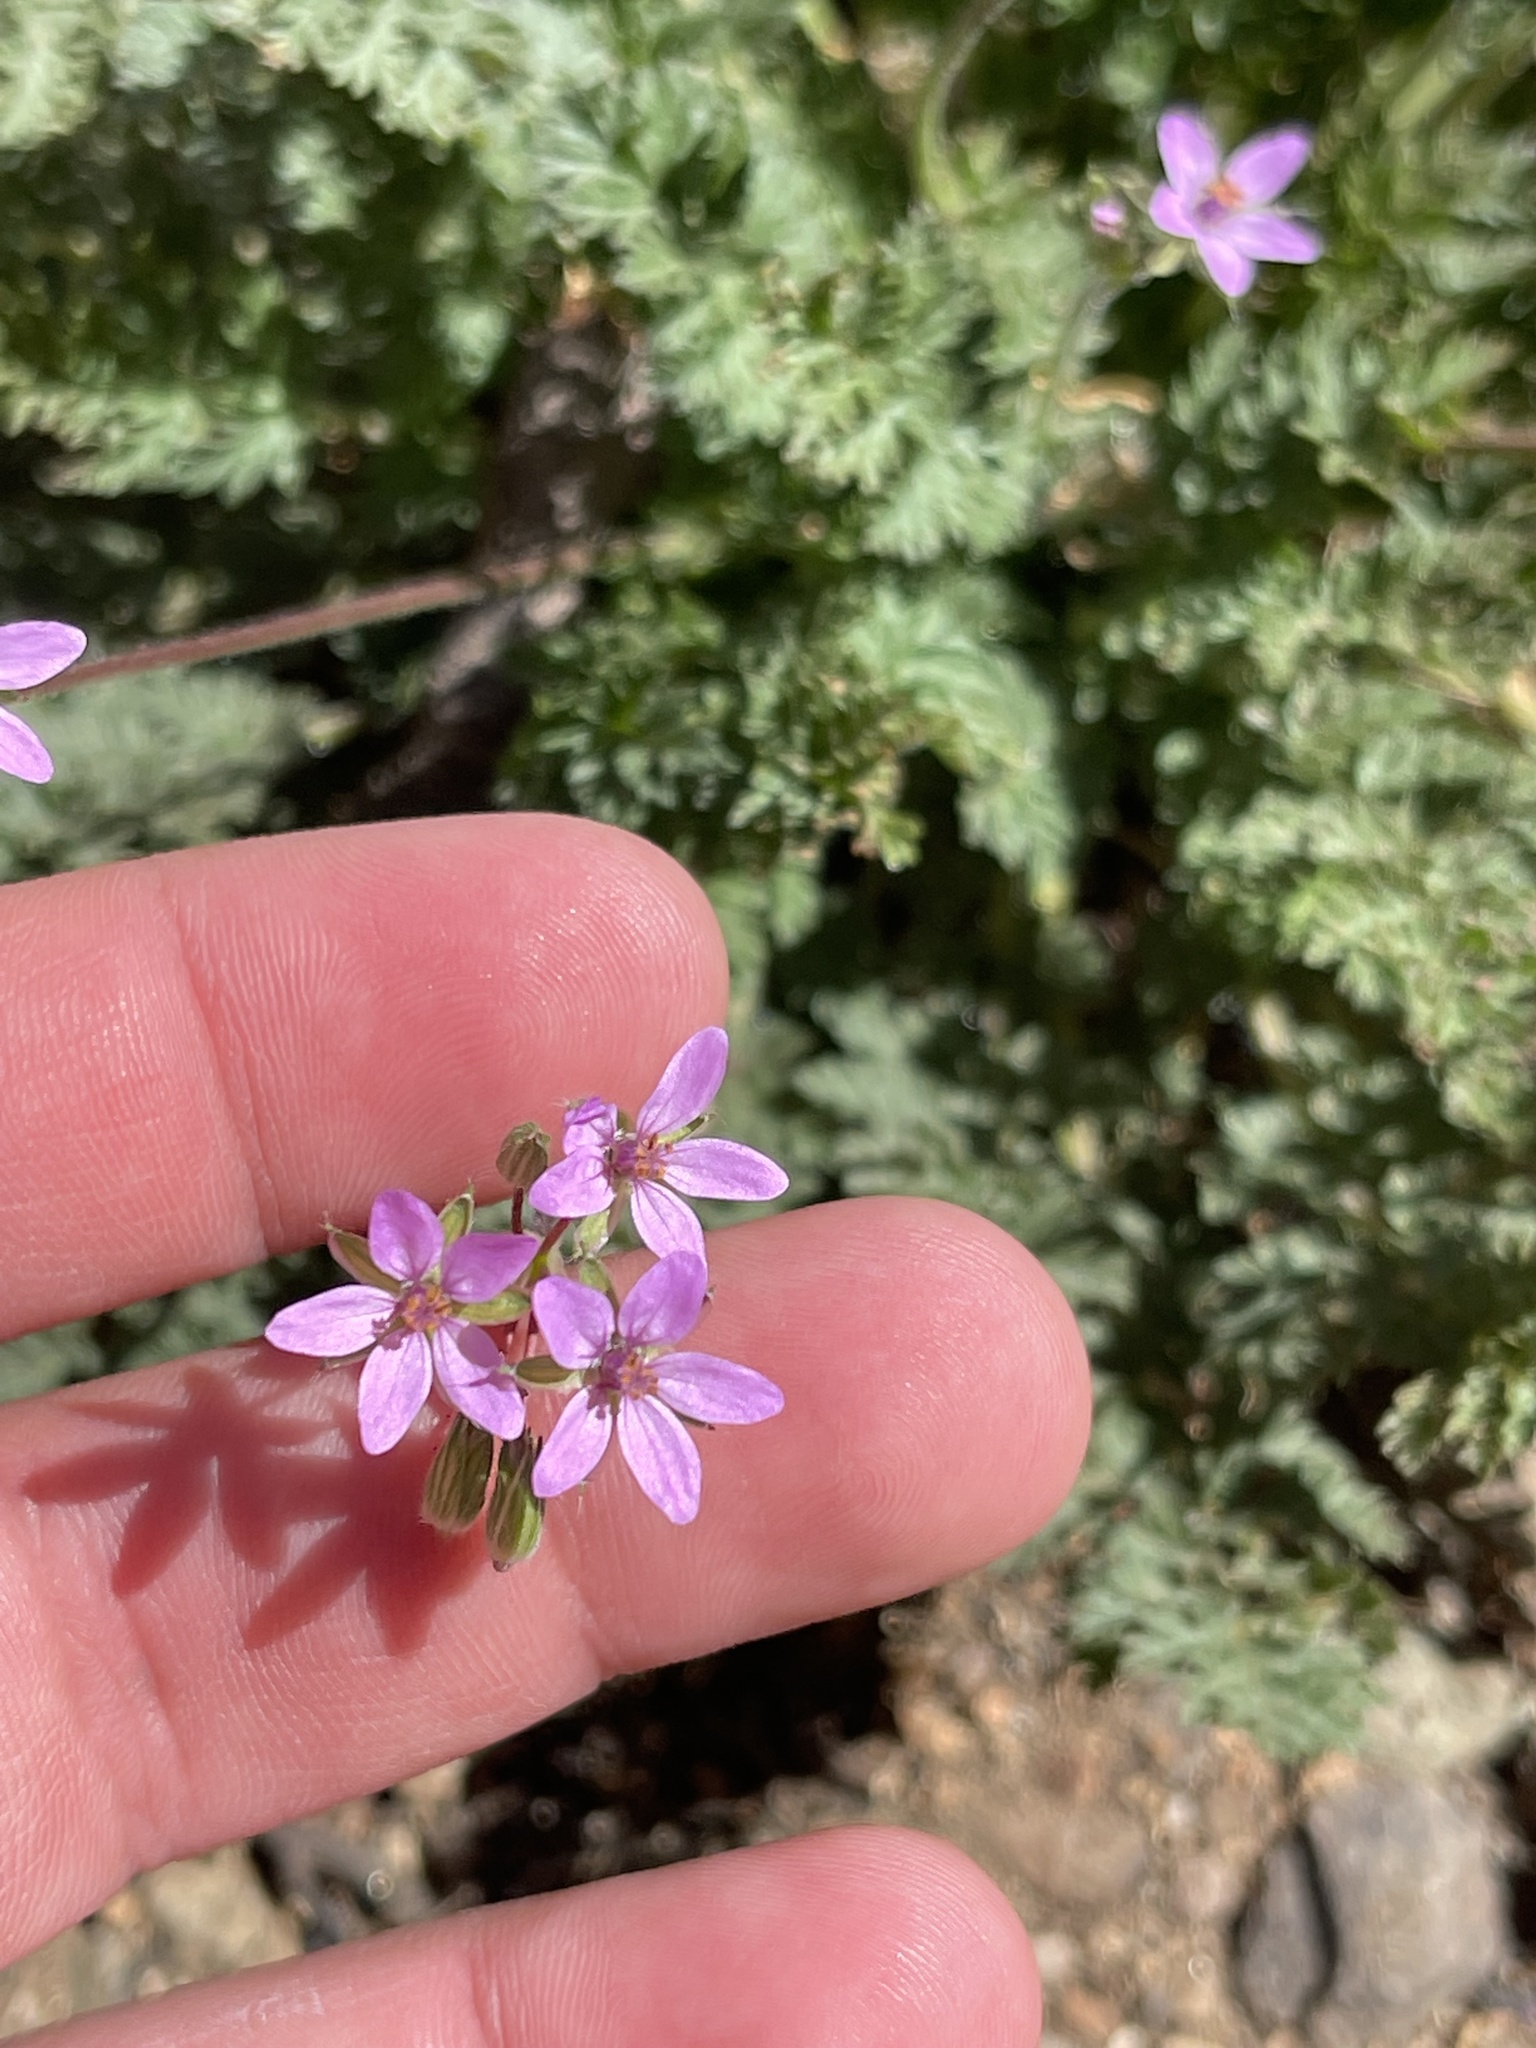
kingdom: Plantae
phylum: Tracheophyta
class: Magnoliopsida
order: Geraniales
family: Geraniaceae
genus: Erodium
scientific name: Erodium cicutarium
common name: Common stork's-bill
